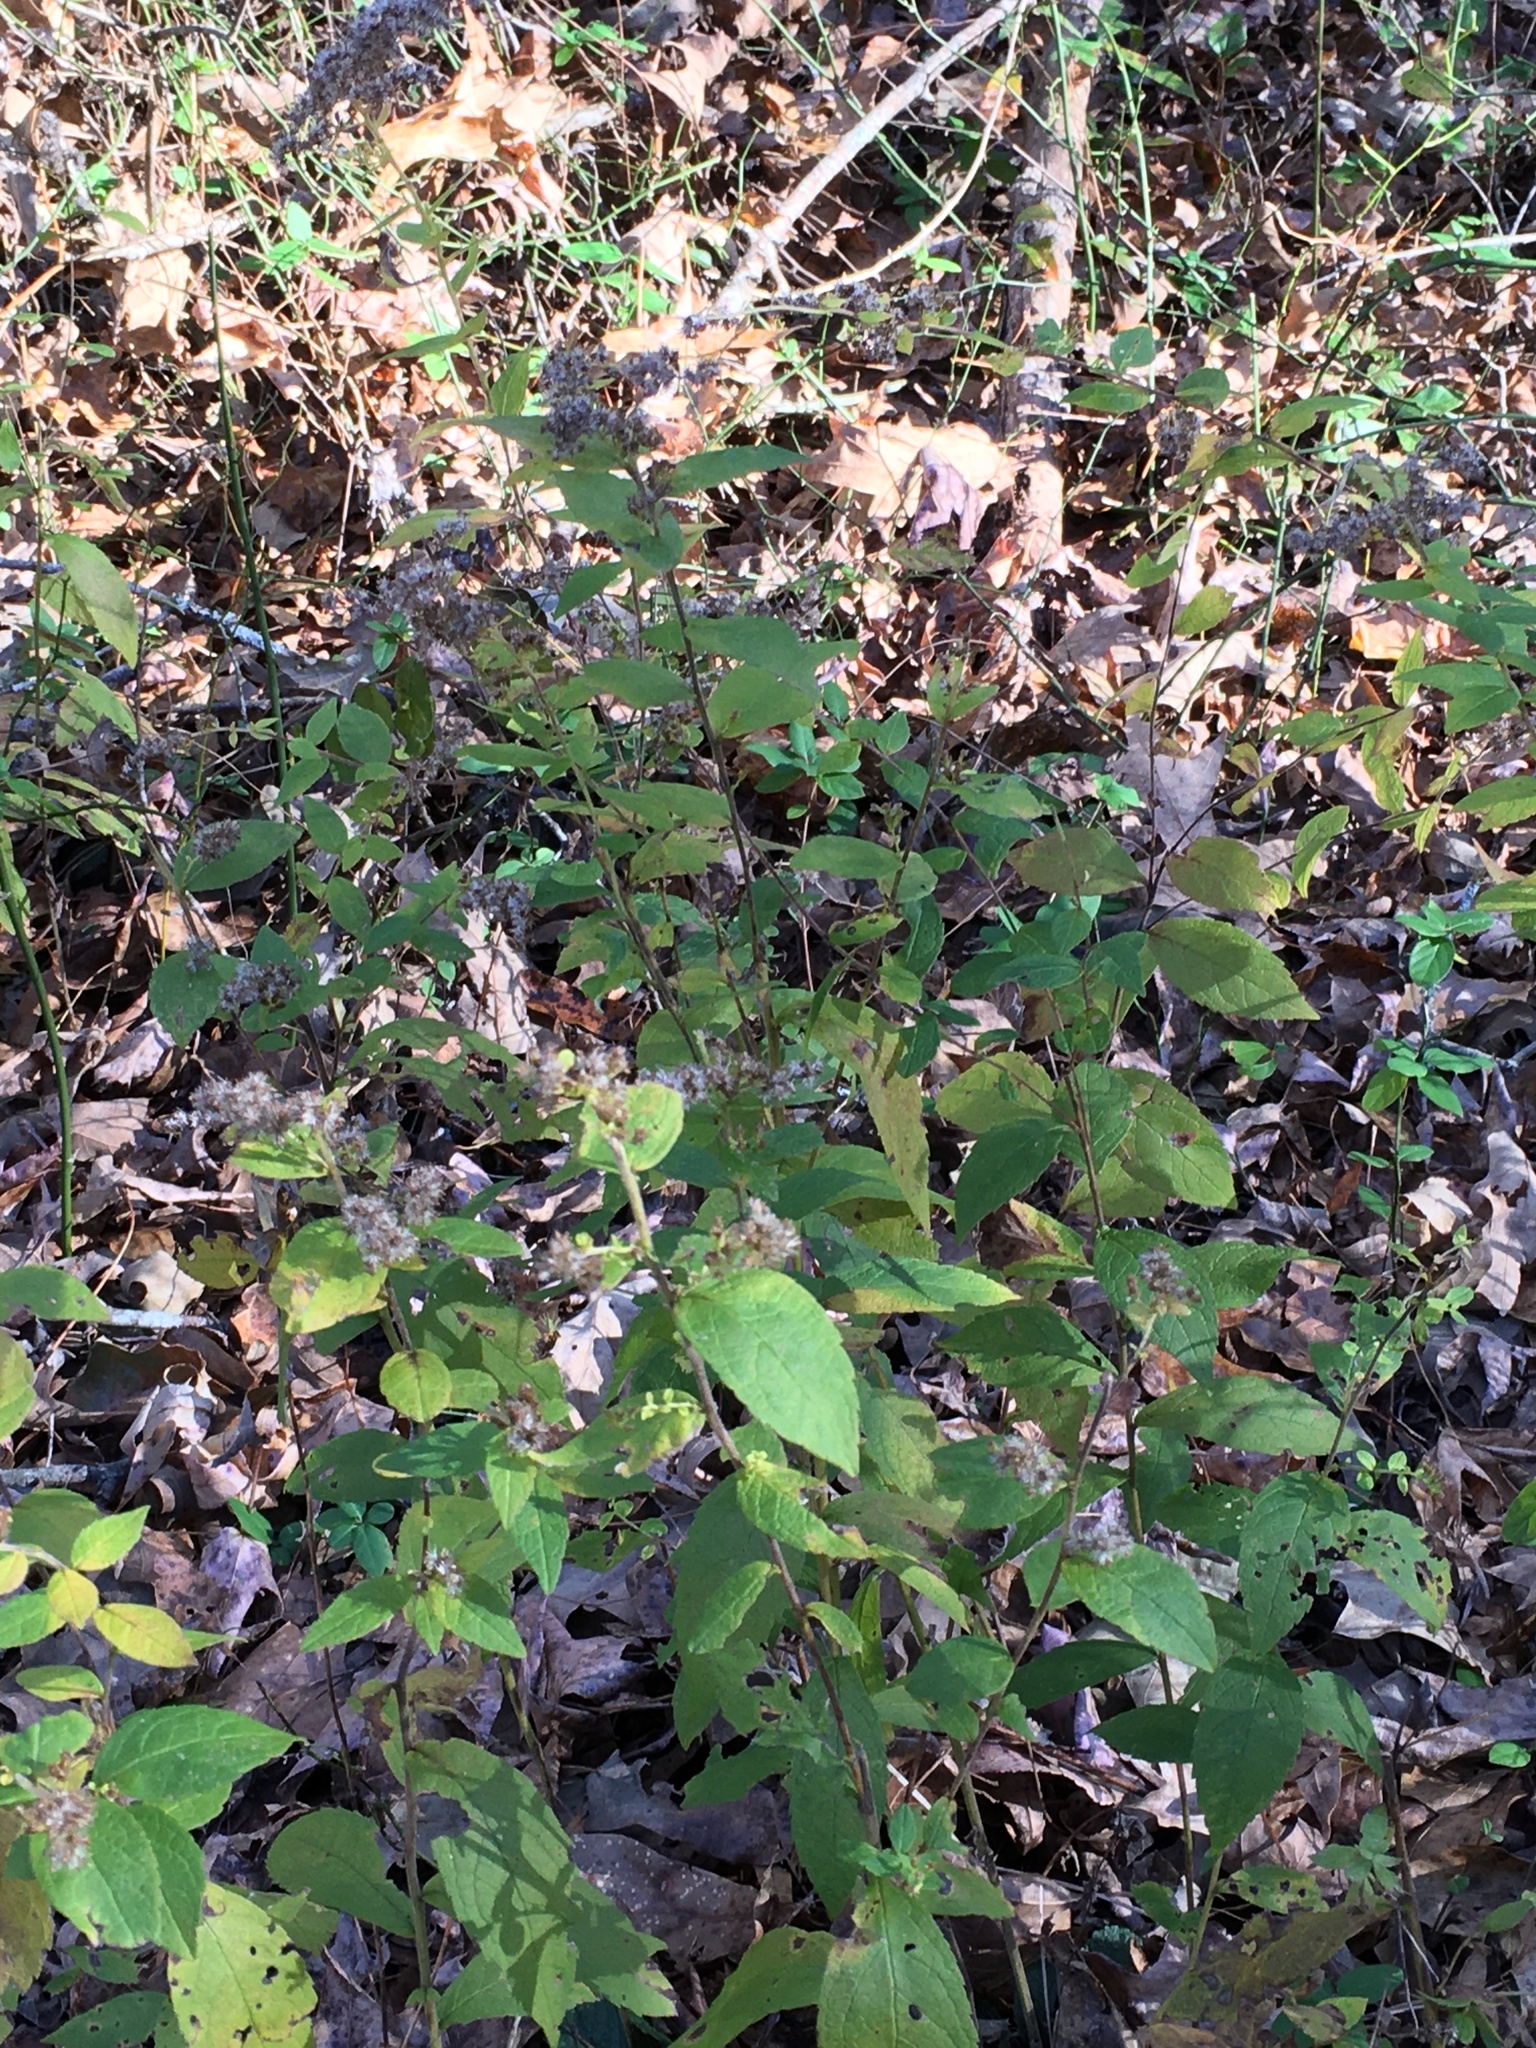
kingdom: Plantae
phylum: Tracheophyta
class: Magnoliopsida
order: Asterales
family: Asteraceae
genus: Solidago
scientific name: Solidago rugosa
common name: Rough-stemmed goldenrod
